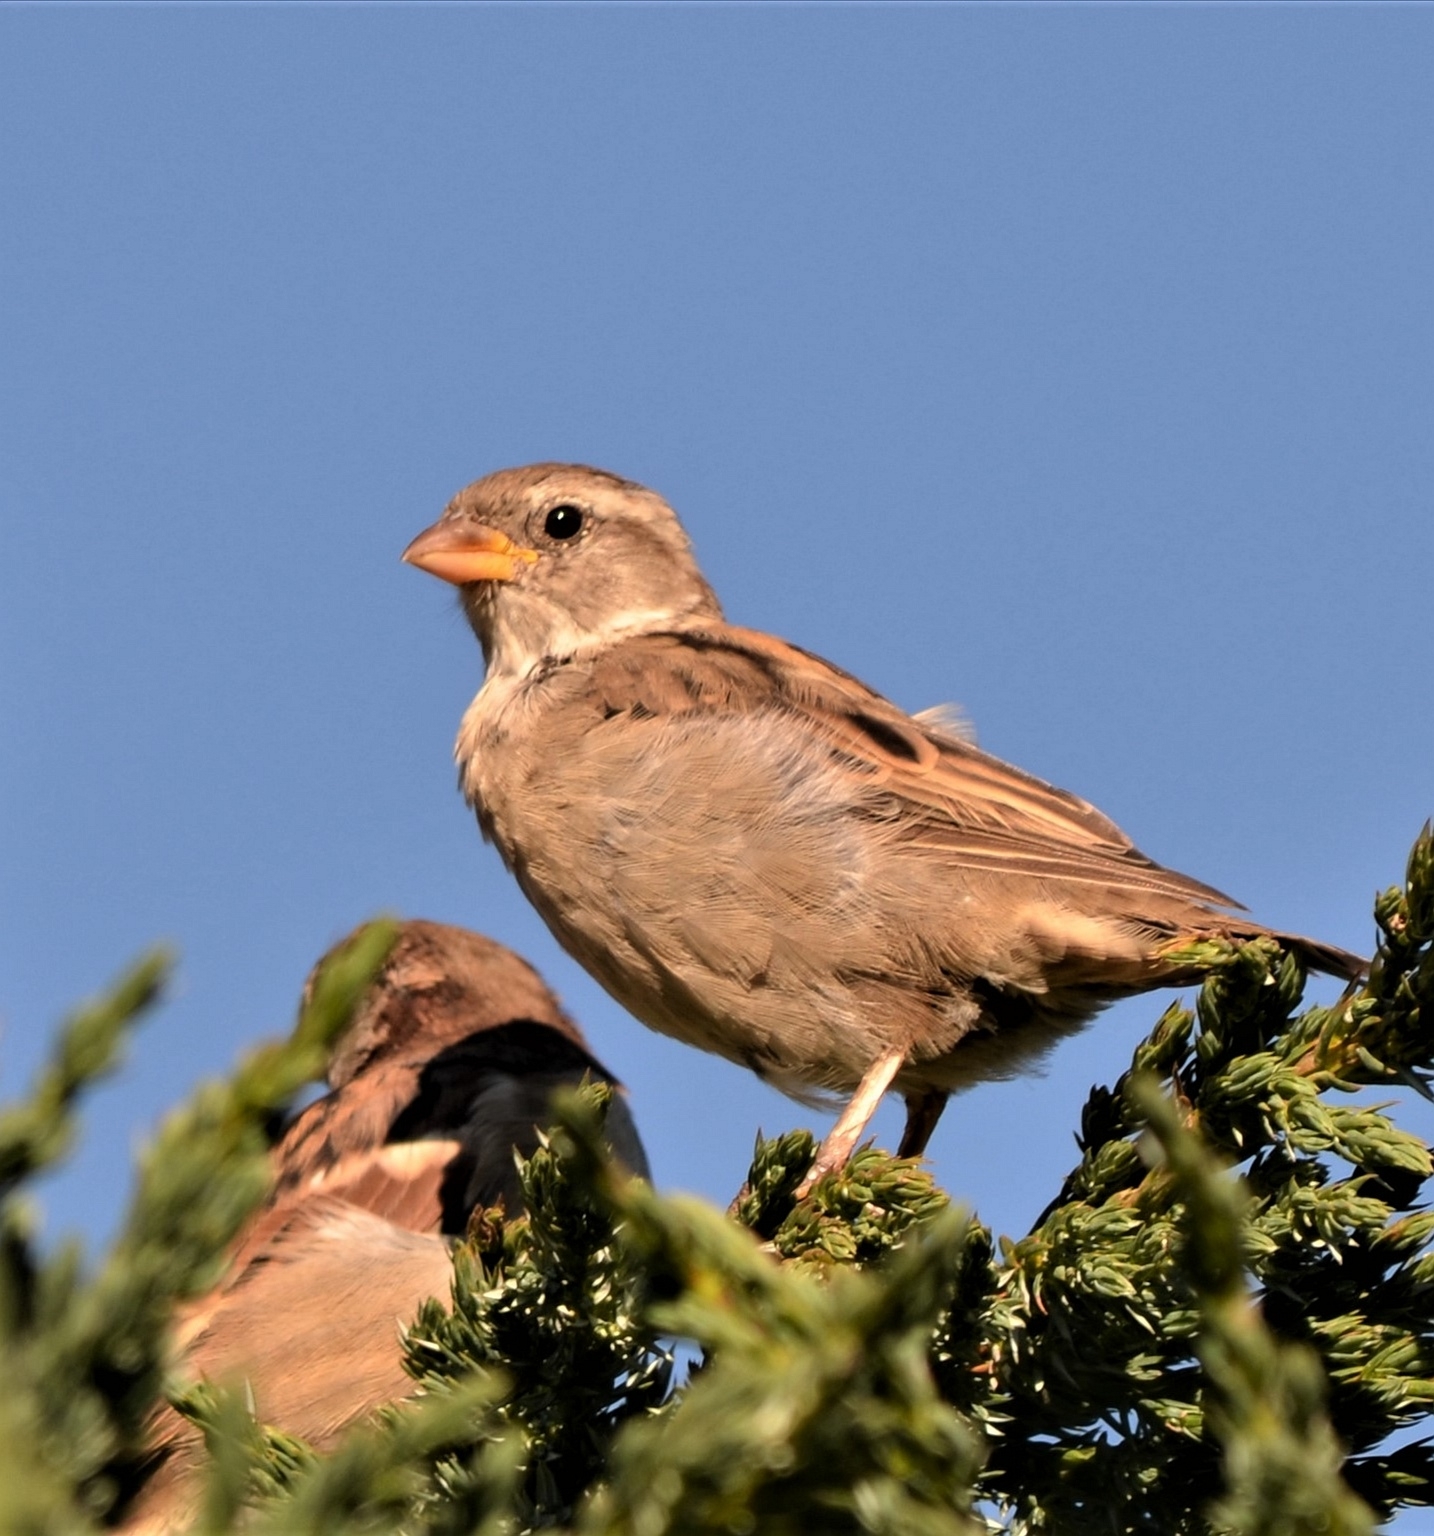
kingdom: Animalia
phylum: Chordata
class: Aves
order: Passeriformes
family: Passeridae
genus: Passer
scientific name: Passer domesticus
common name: House sparrow
